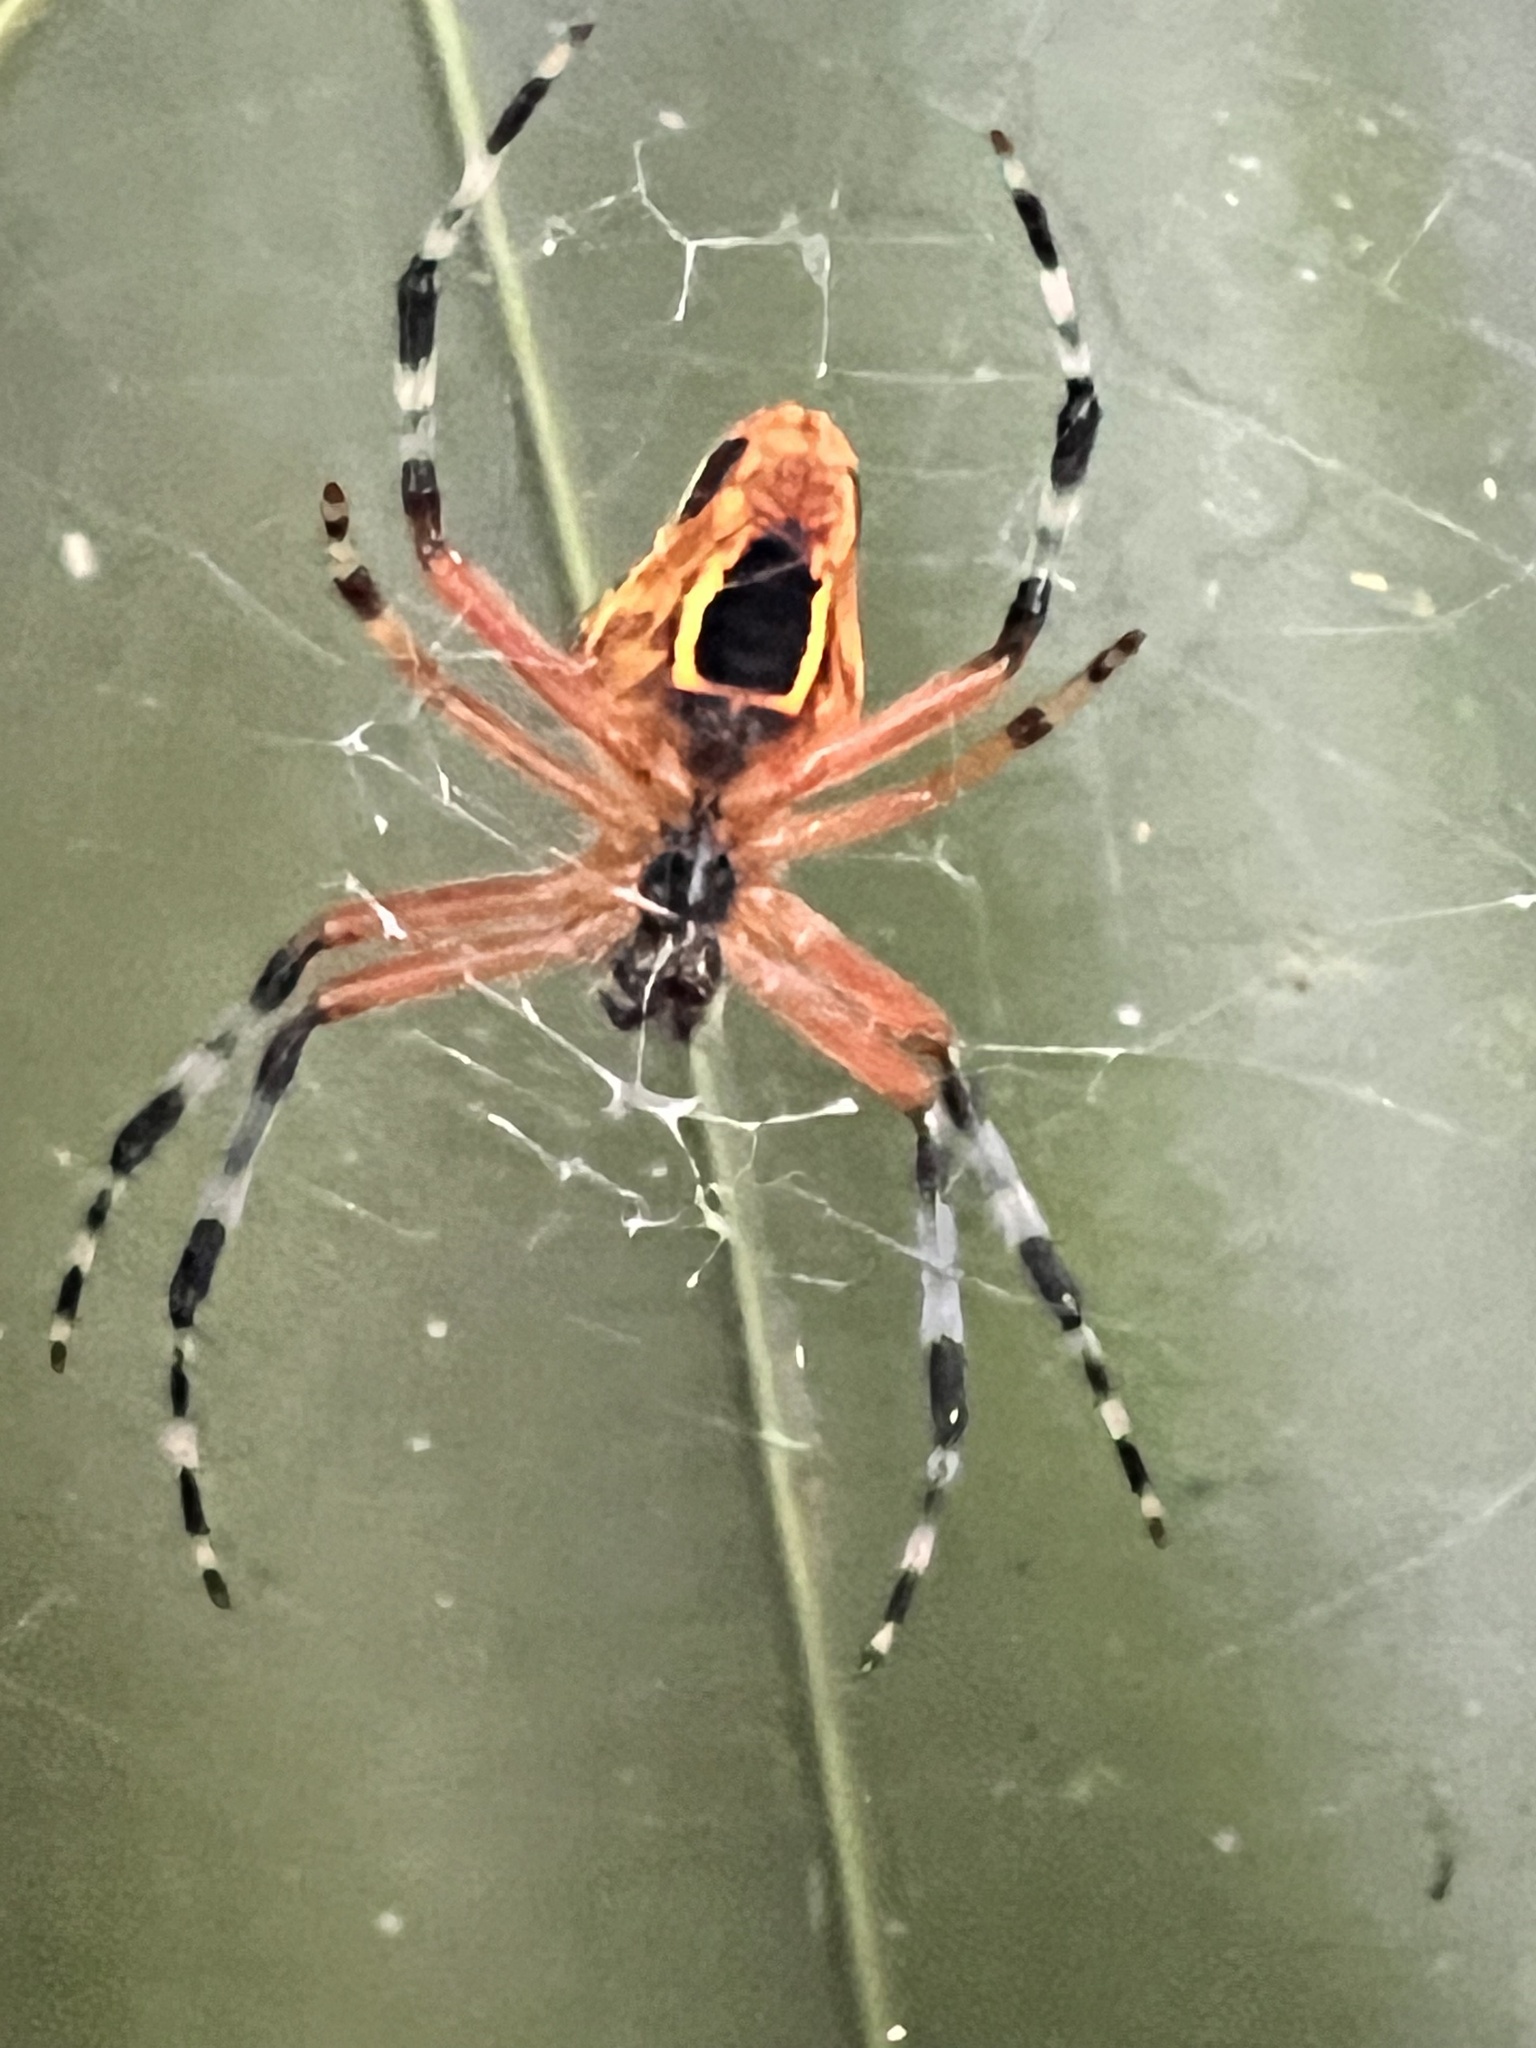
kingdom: Animalia
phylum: Arthropoda
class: Arachnida
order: Araneae
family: Araneidae
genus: Eriophora
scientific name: Eriophora nephiloides
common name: Orb weavers
